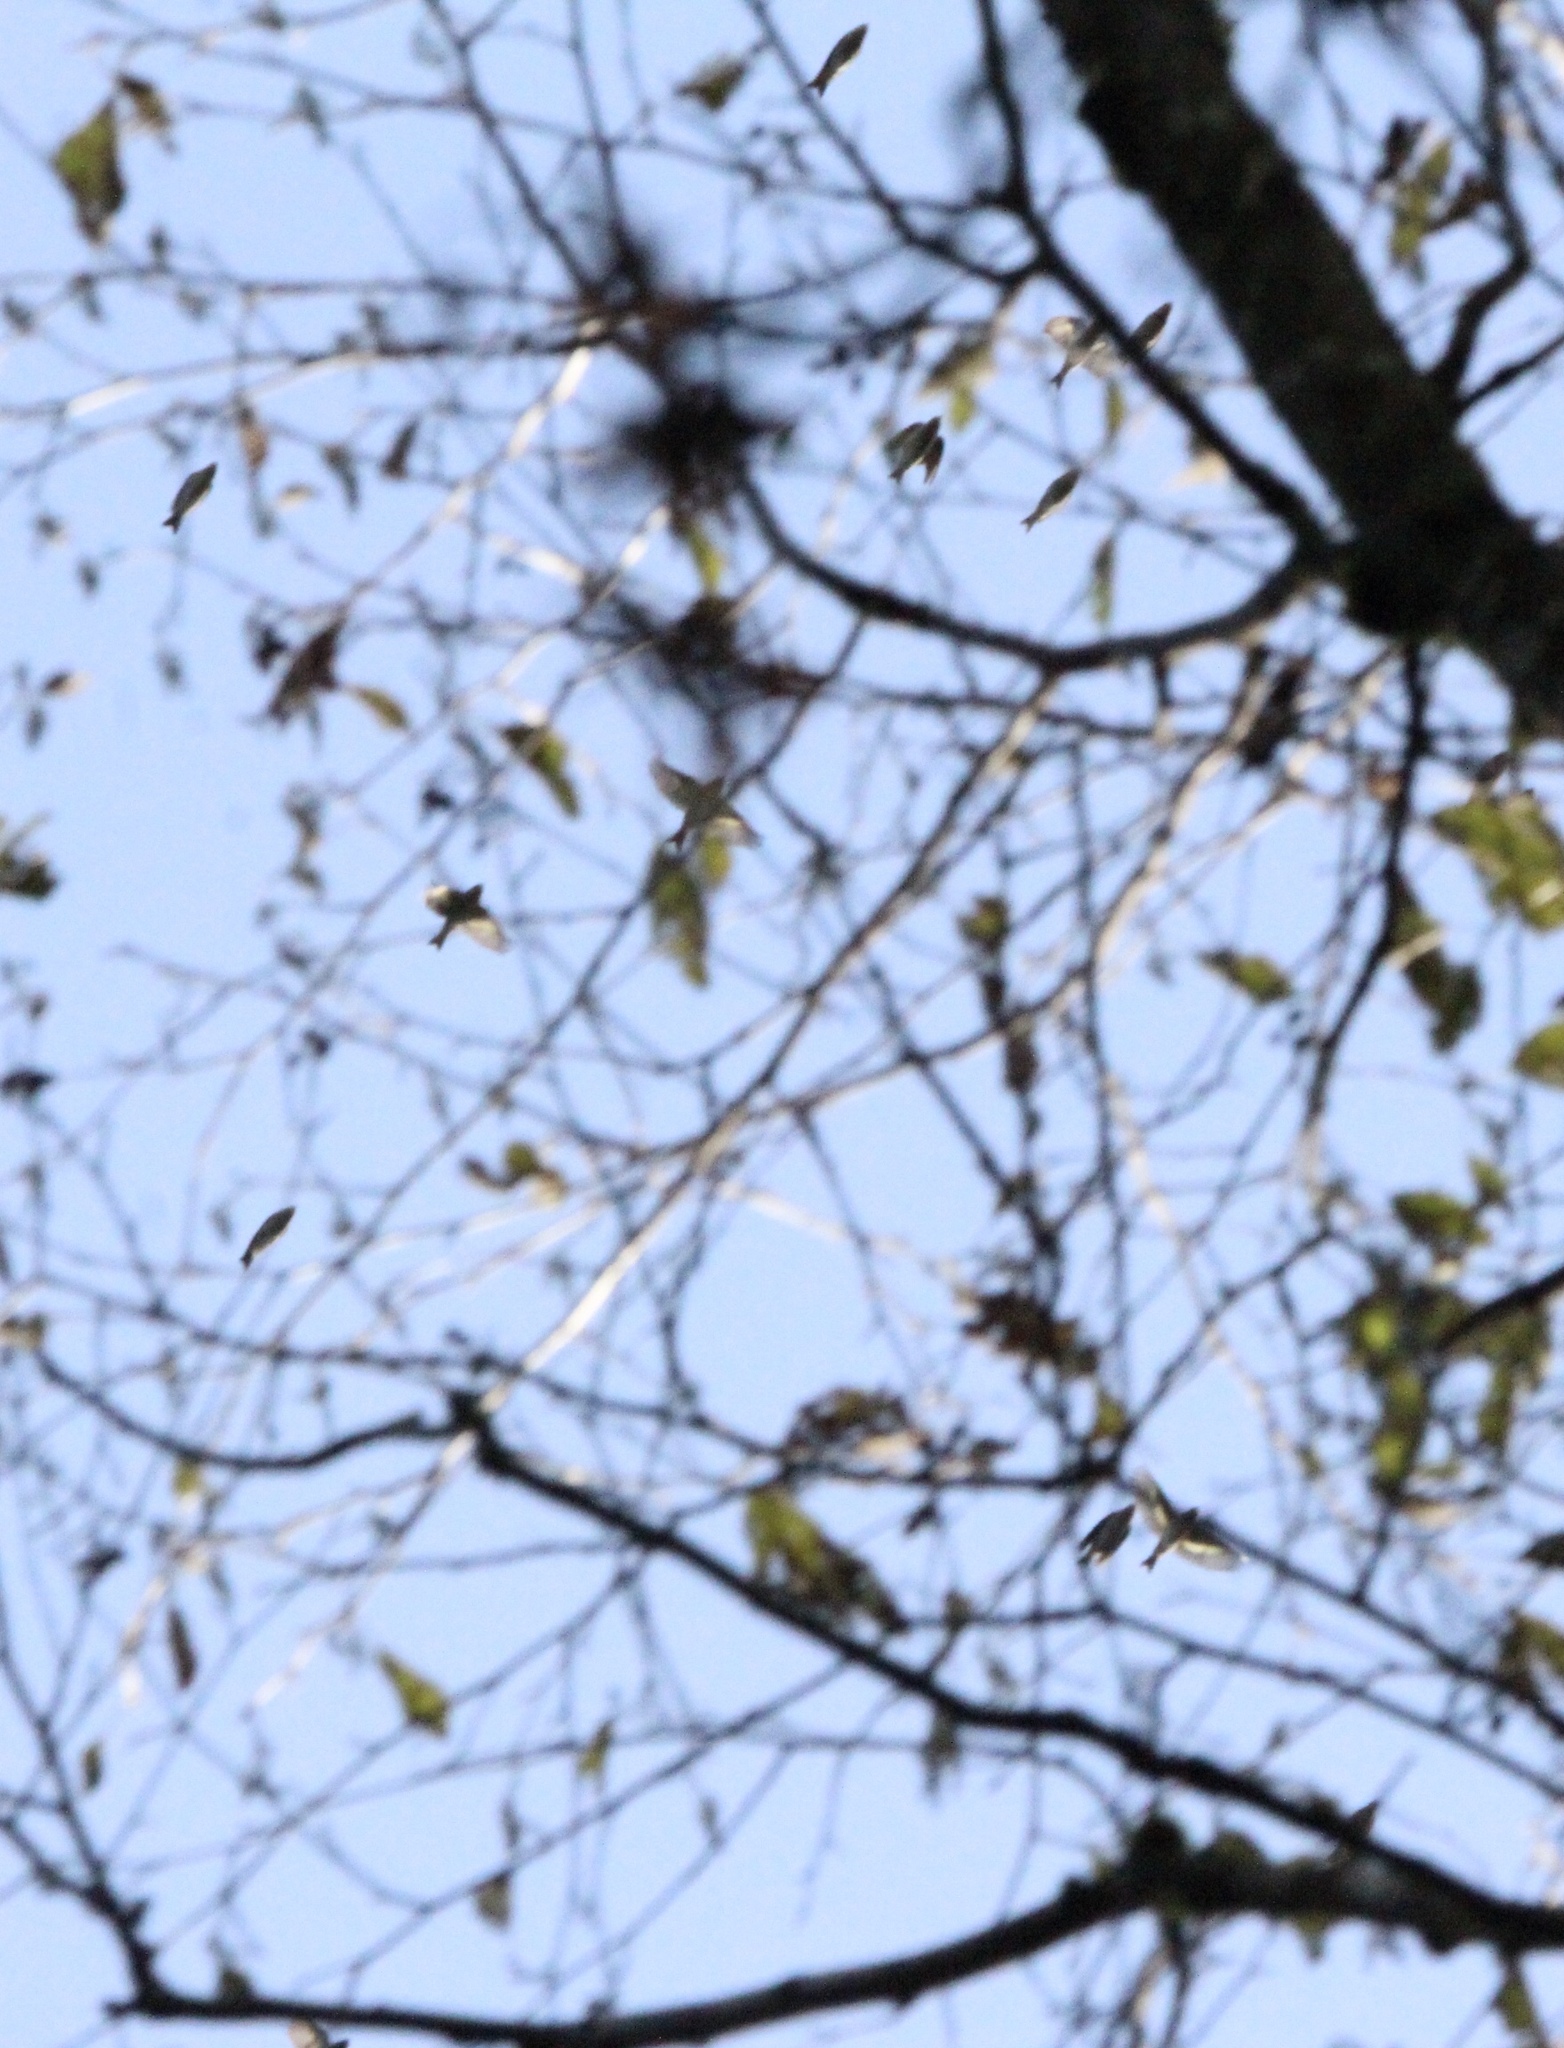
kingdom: Animalia
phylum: Chordata
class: Aves
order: Passeriformes
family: Fringillidae
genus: Spinus
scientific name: Spinus pinus
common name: Pine siskin
